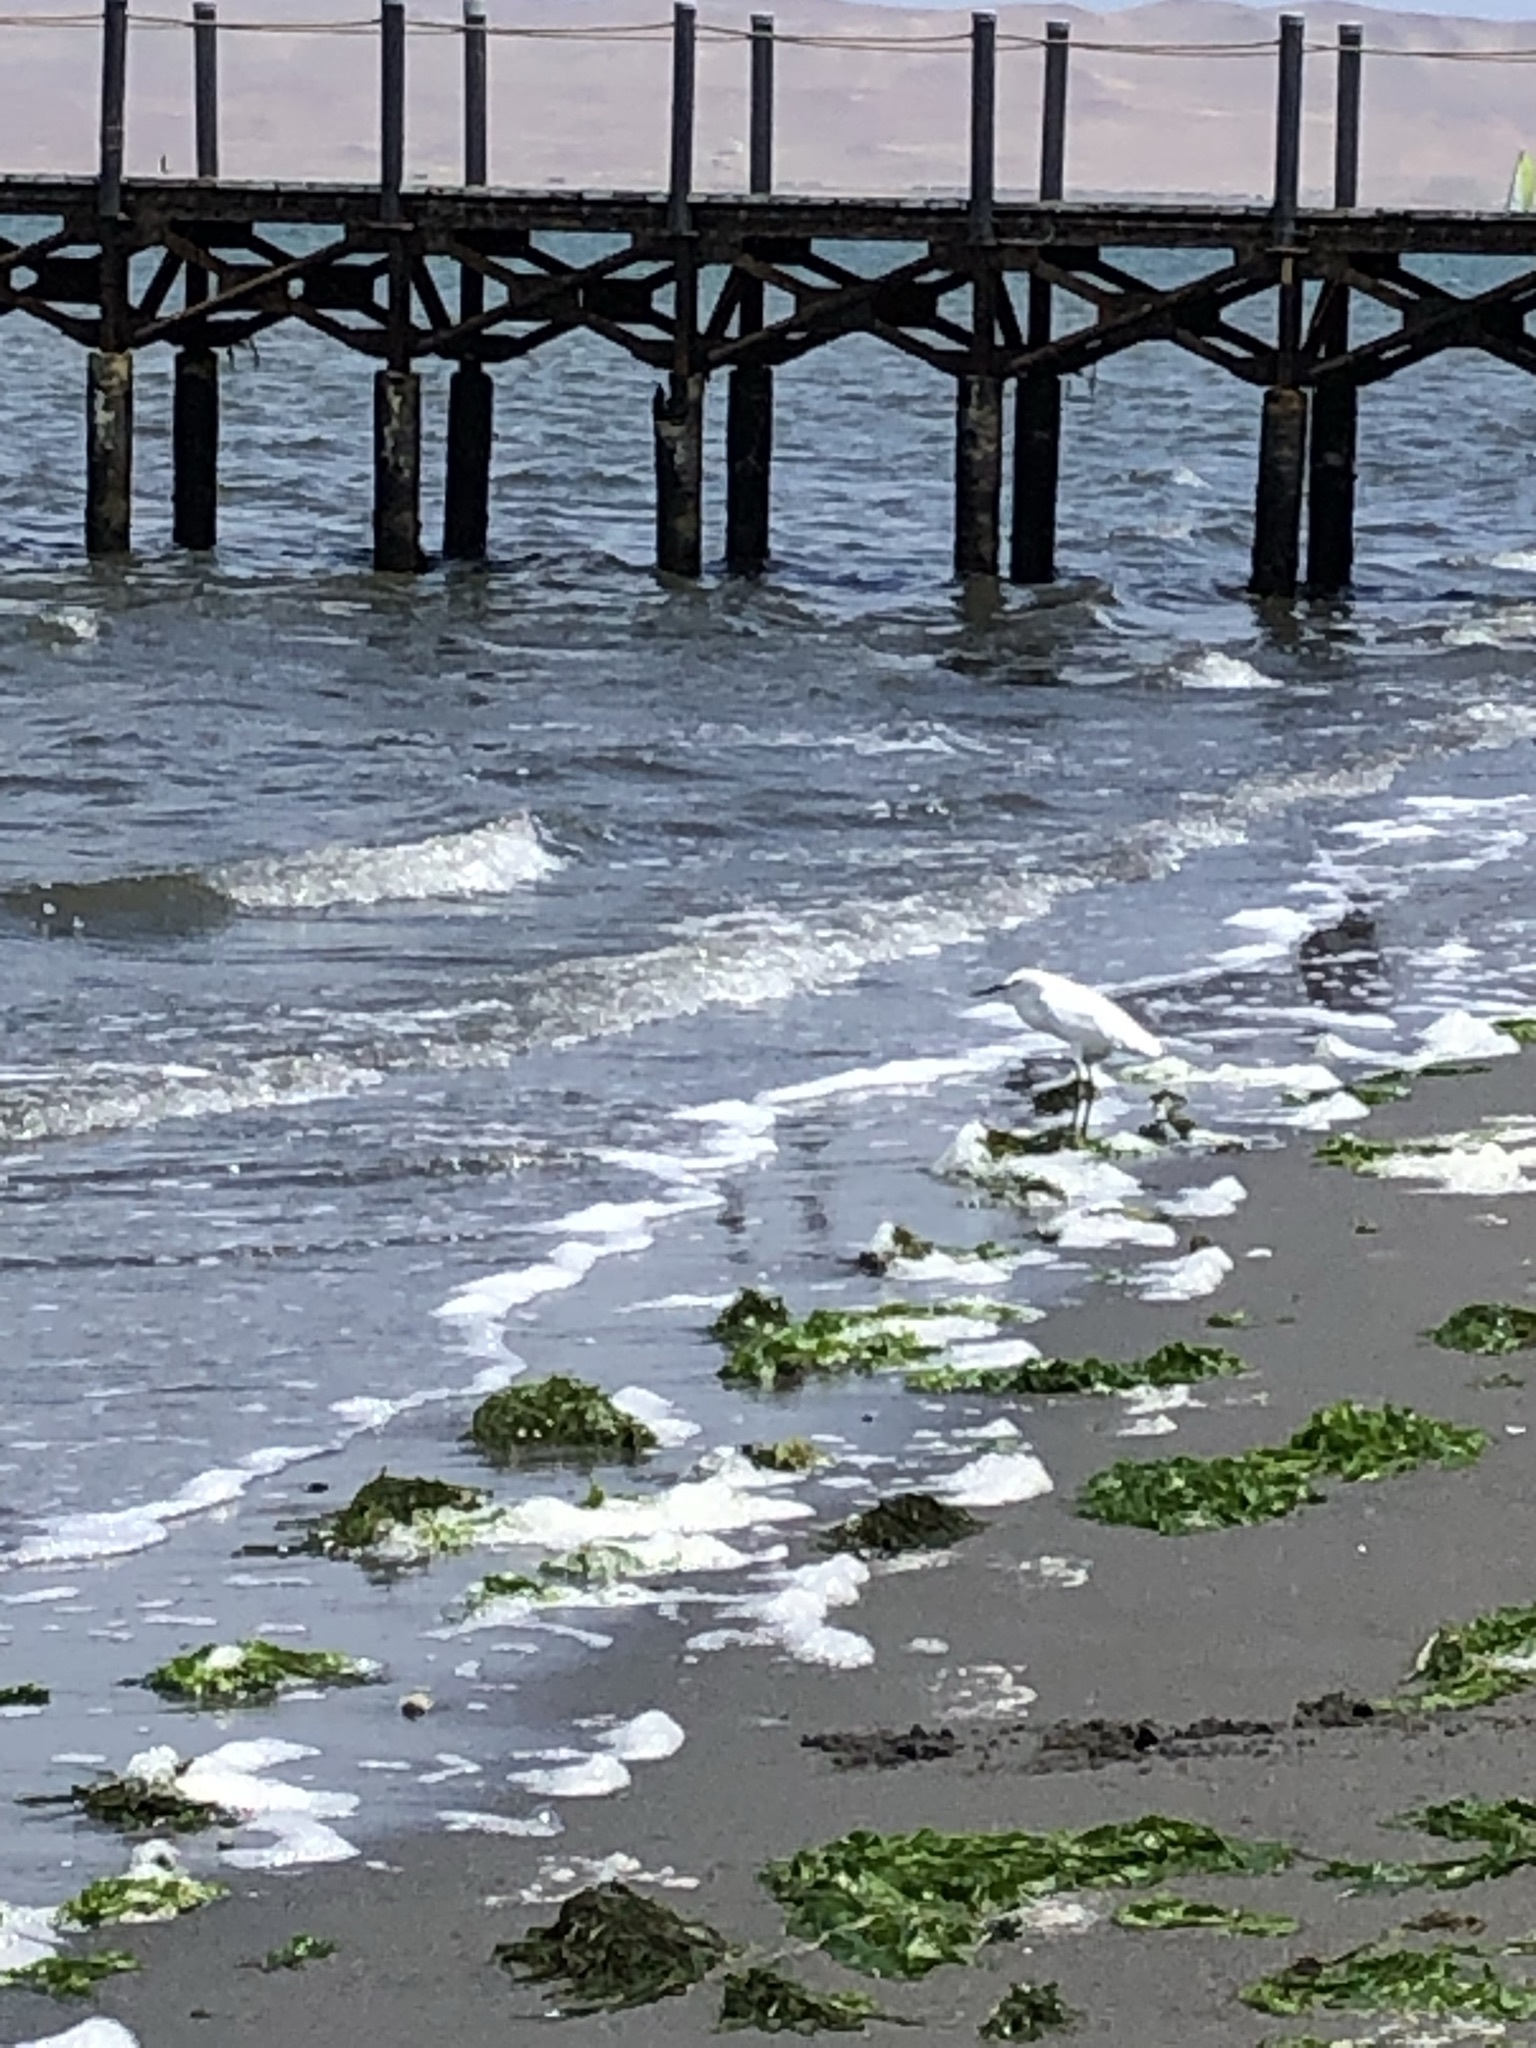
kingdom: Animalia
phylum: Chordata
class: Aves
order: Pelecaniformes
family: Ardeidae
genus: Egretta
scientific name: Egretta thula
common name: Snowy egret
